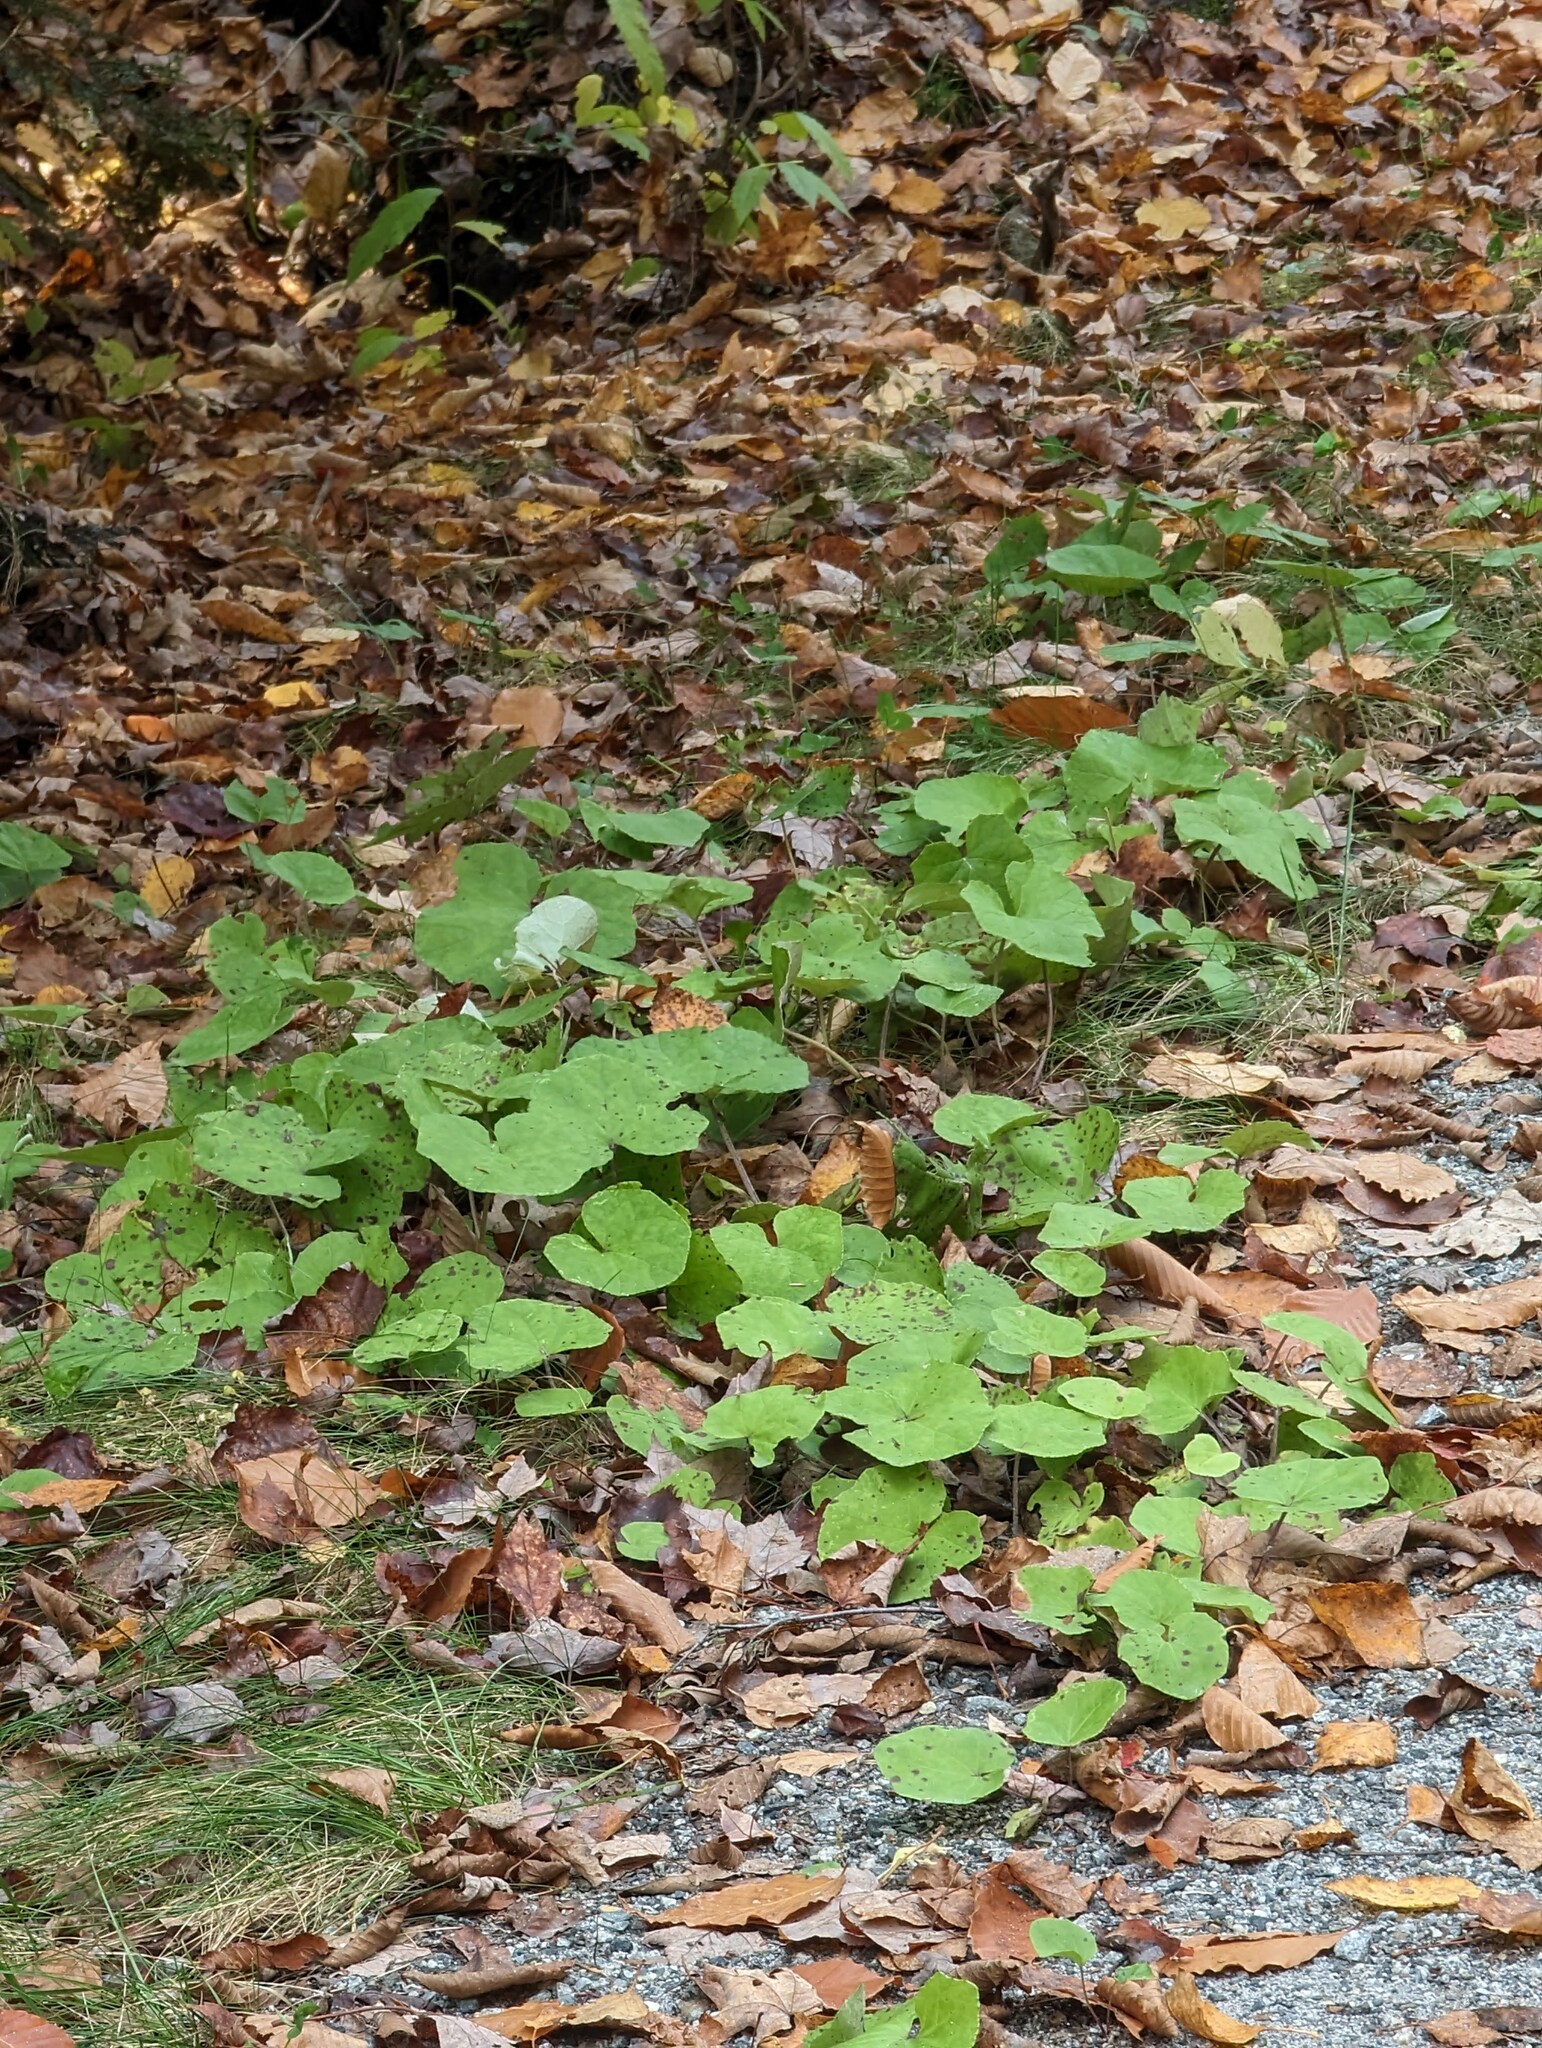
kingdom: Plantae
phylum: Tracheophyta
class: Magnoliopsida
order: Asterales
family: Asteraceae
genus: Tussilago
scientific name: Tussilago farfara
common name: Coltsfoot
